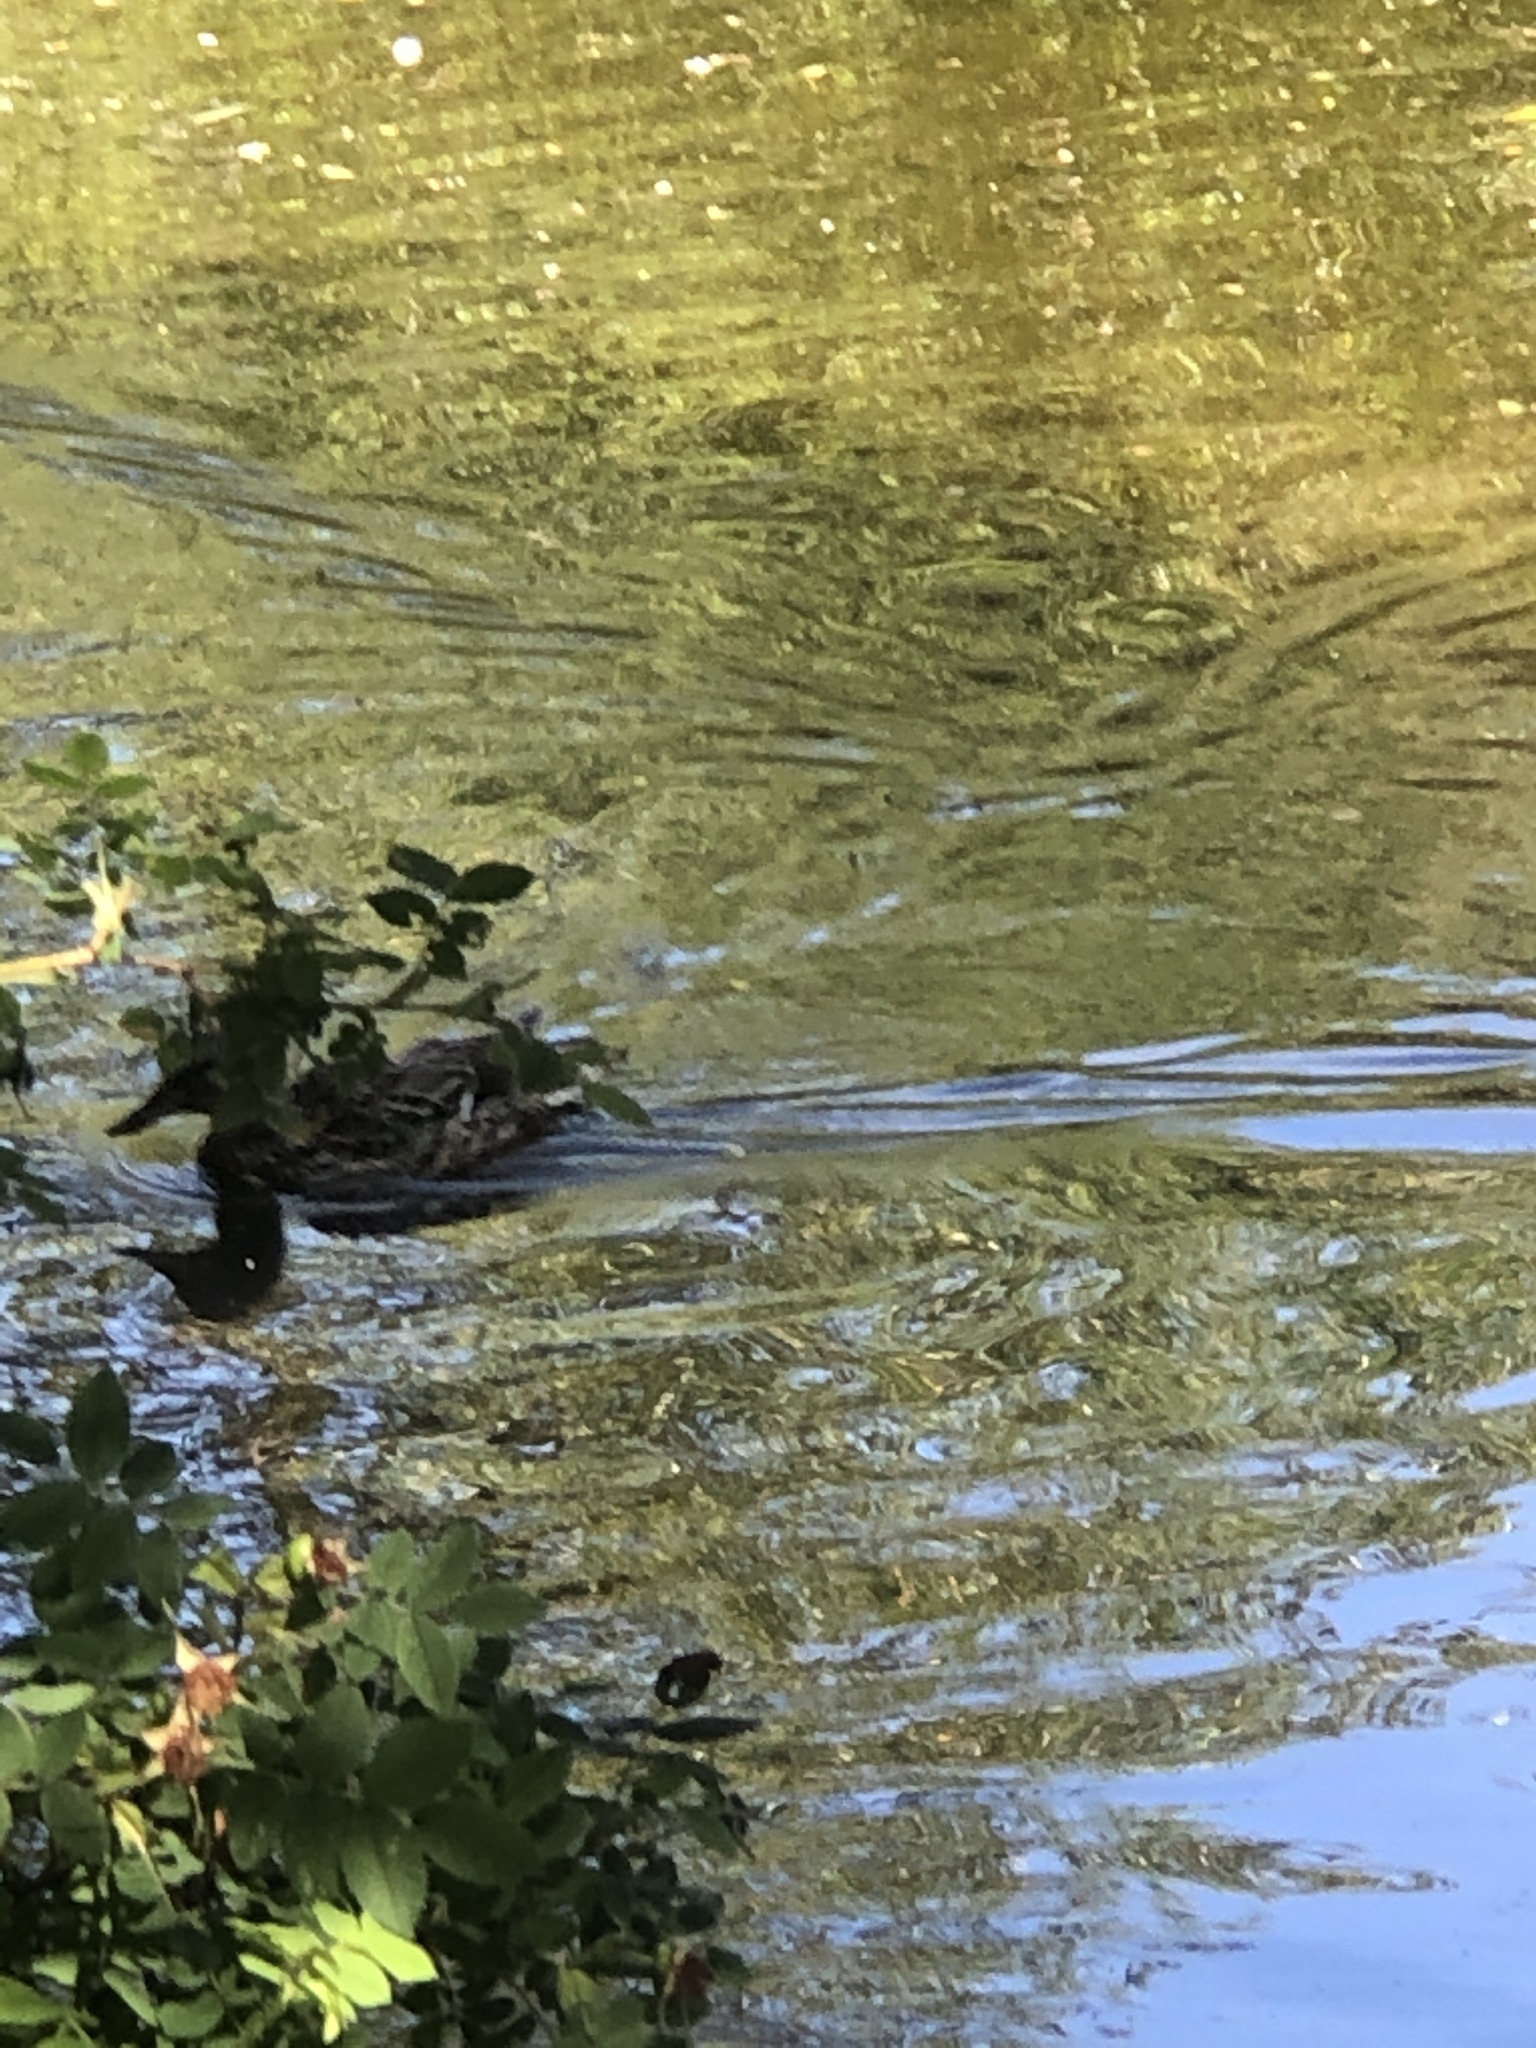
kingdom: Animalia
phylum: Chordata
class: Aves
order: Anseriformes
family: Anatidae
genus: Anas
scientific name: Anas platyrhynchos
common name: Mallard
